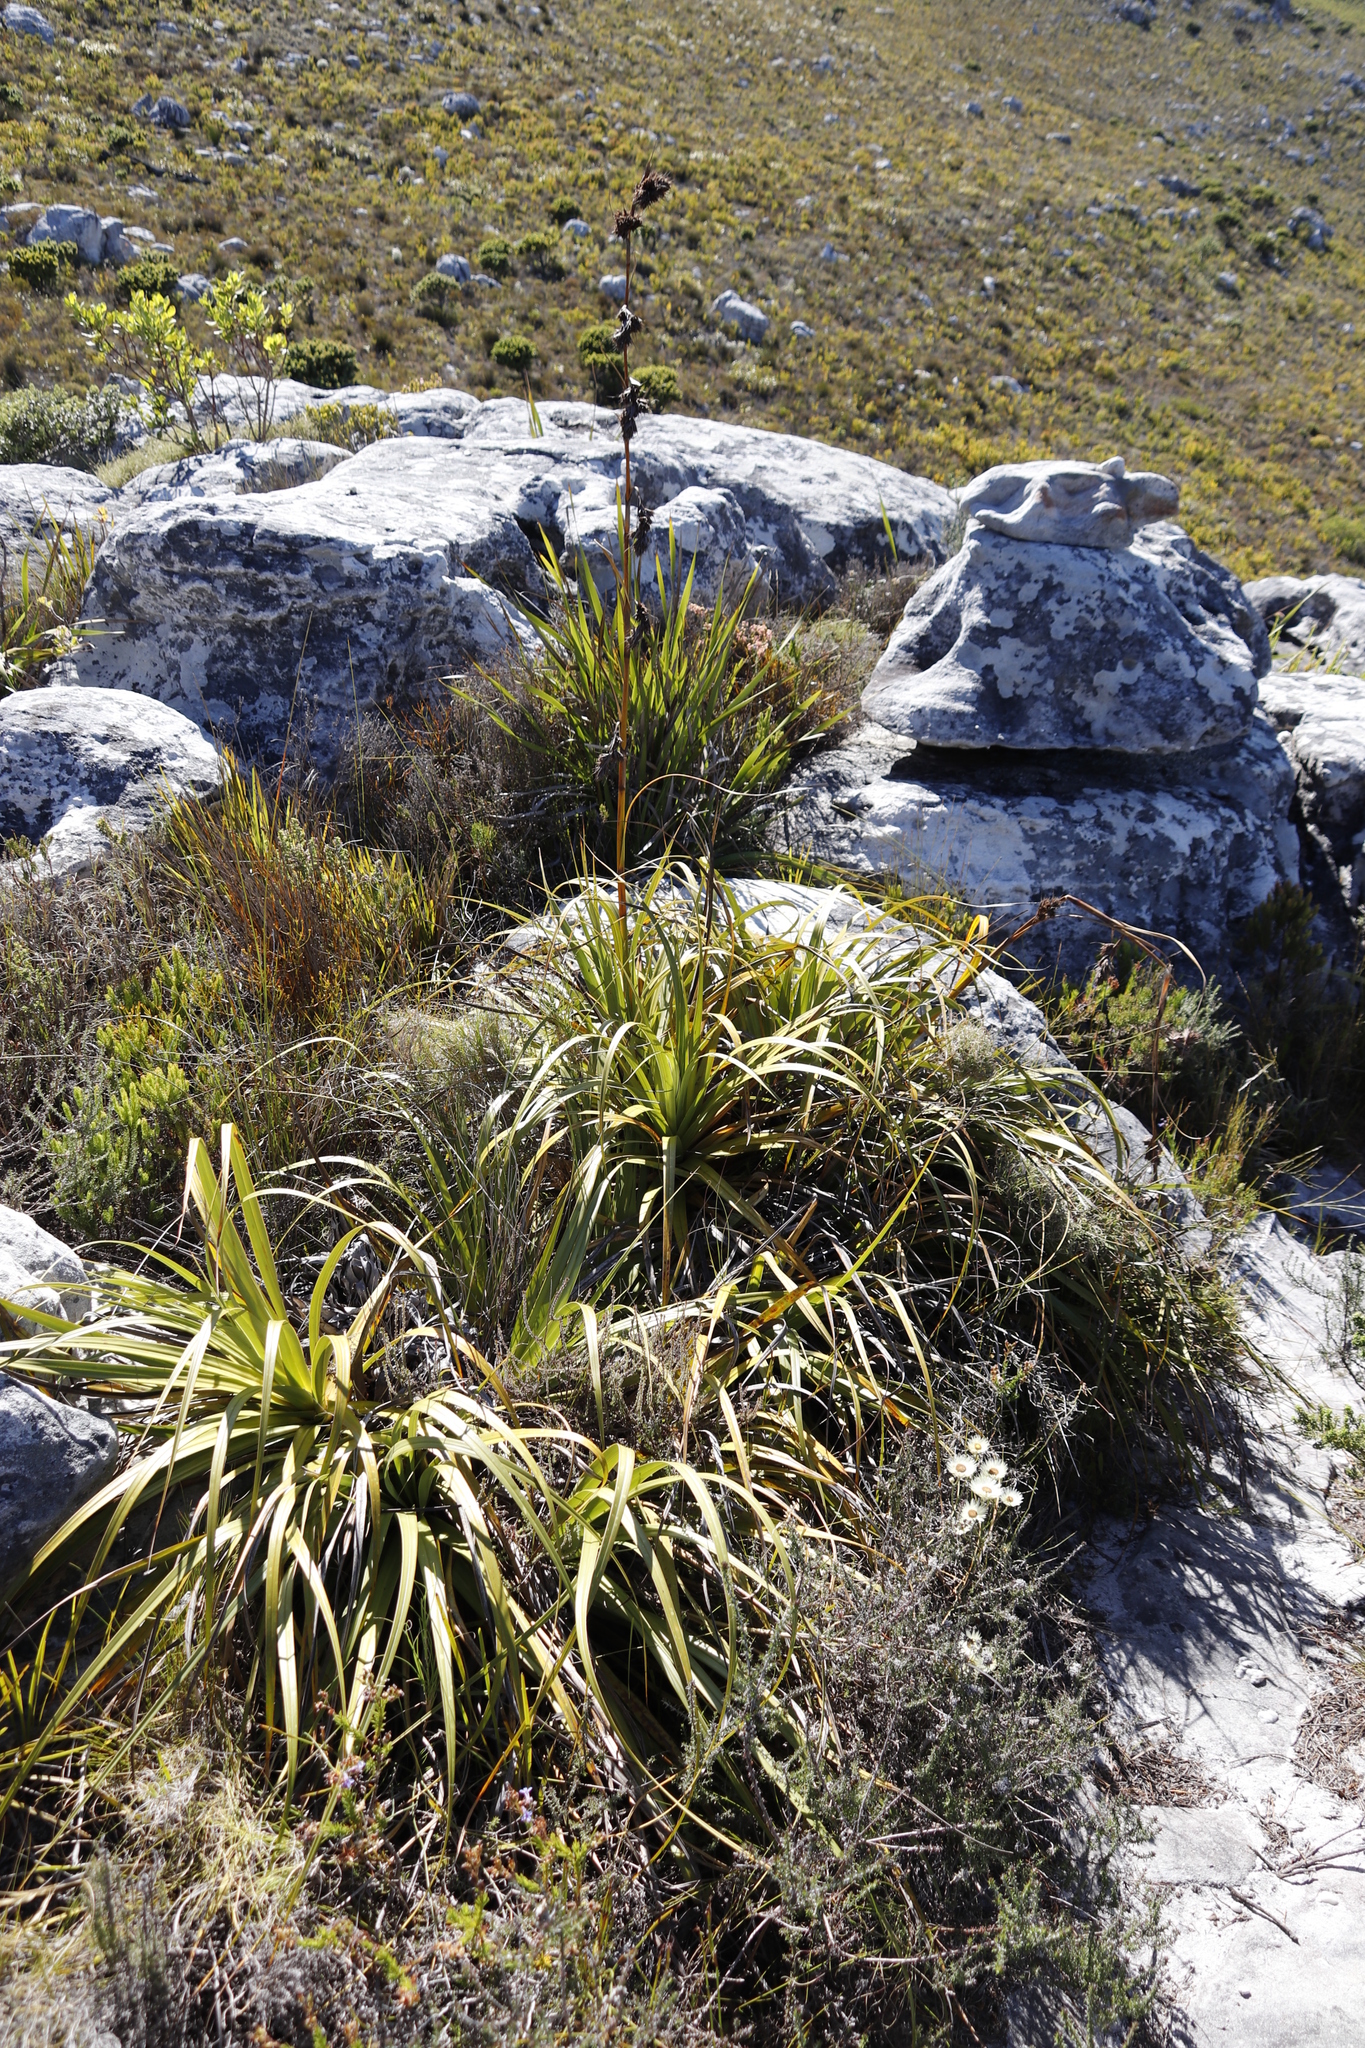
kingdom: Plantae
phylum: Tracheophyta
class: Liliopsida
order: Poales
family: Cyperaceae
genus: Tetraria
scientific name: Tetraria thermalis
